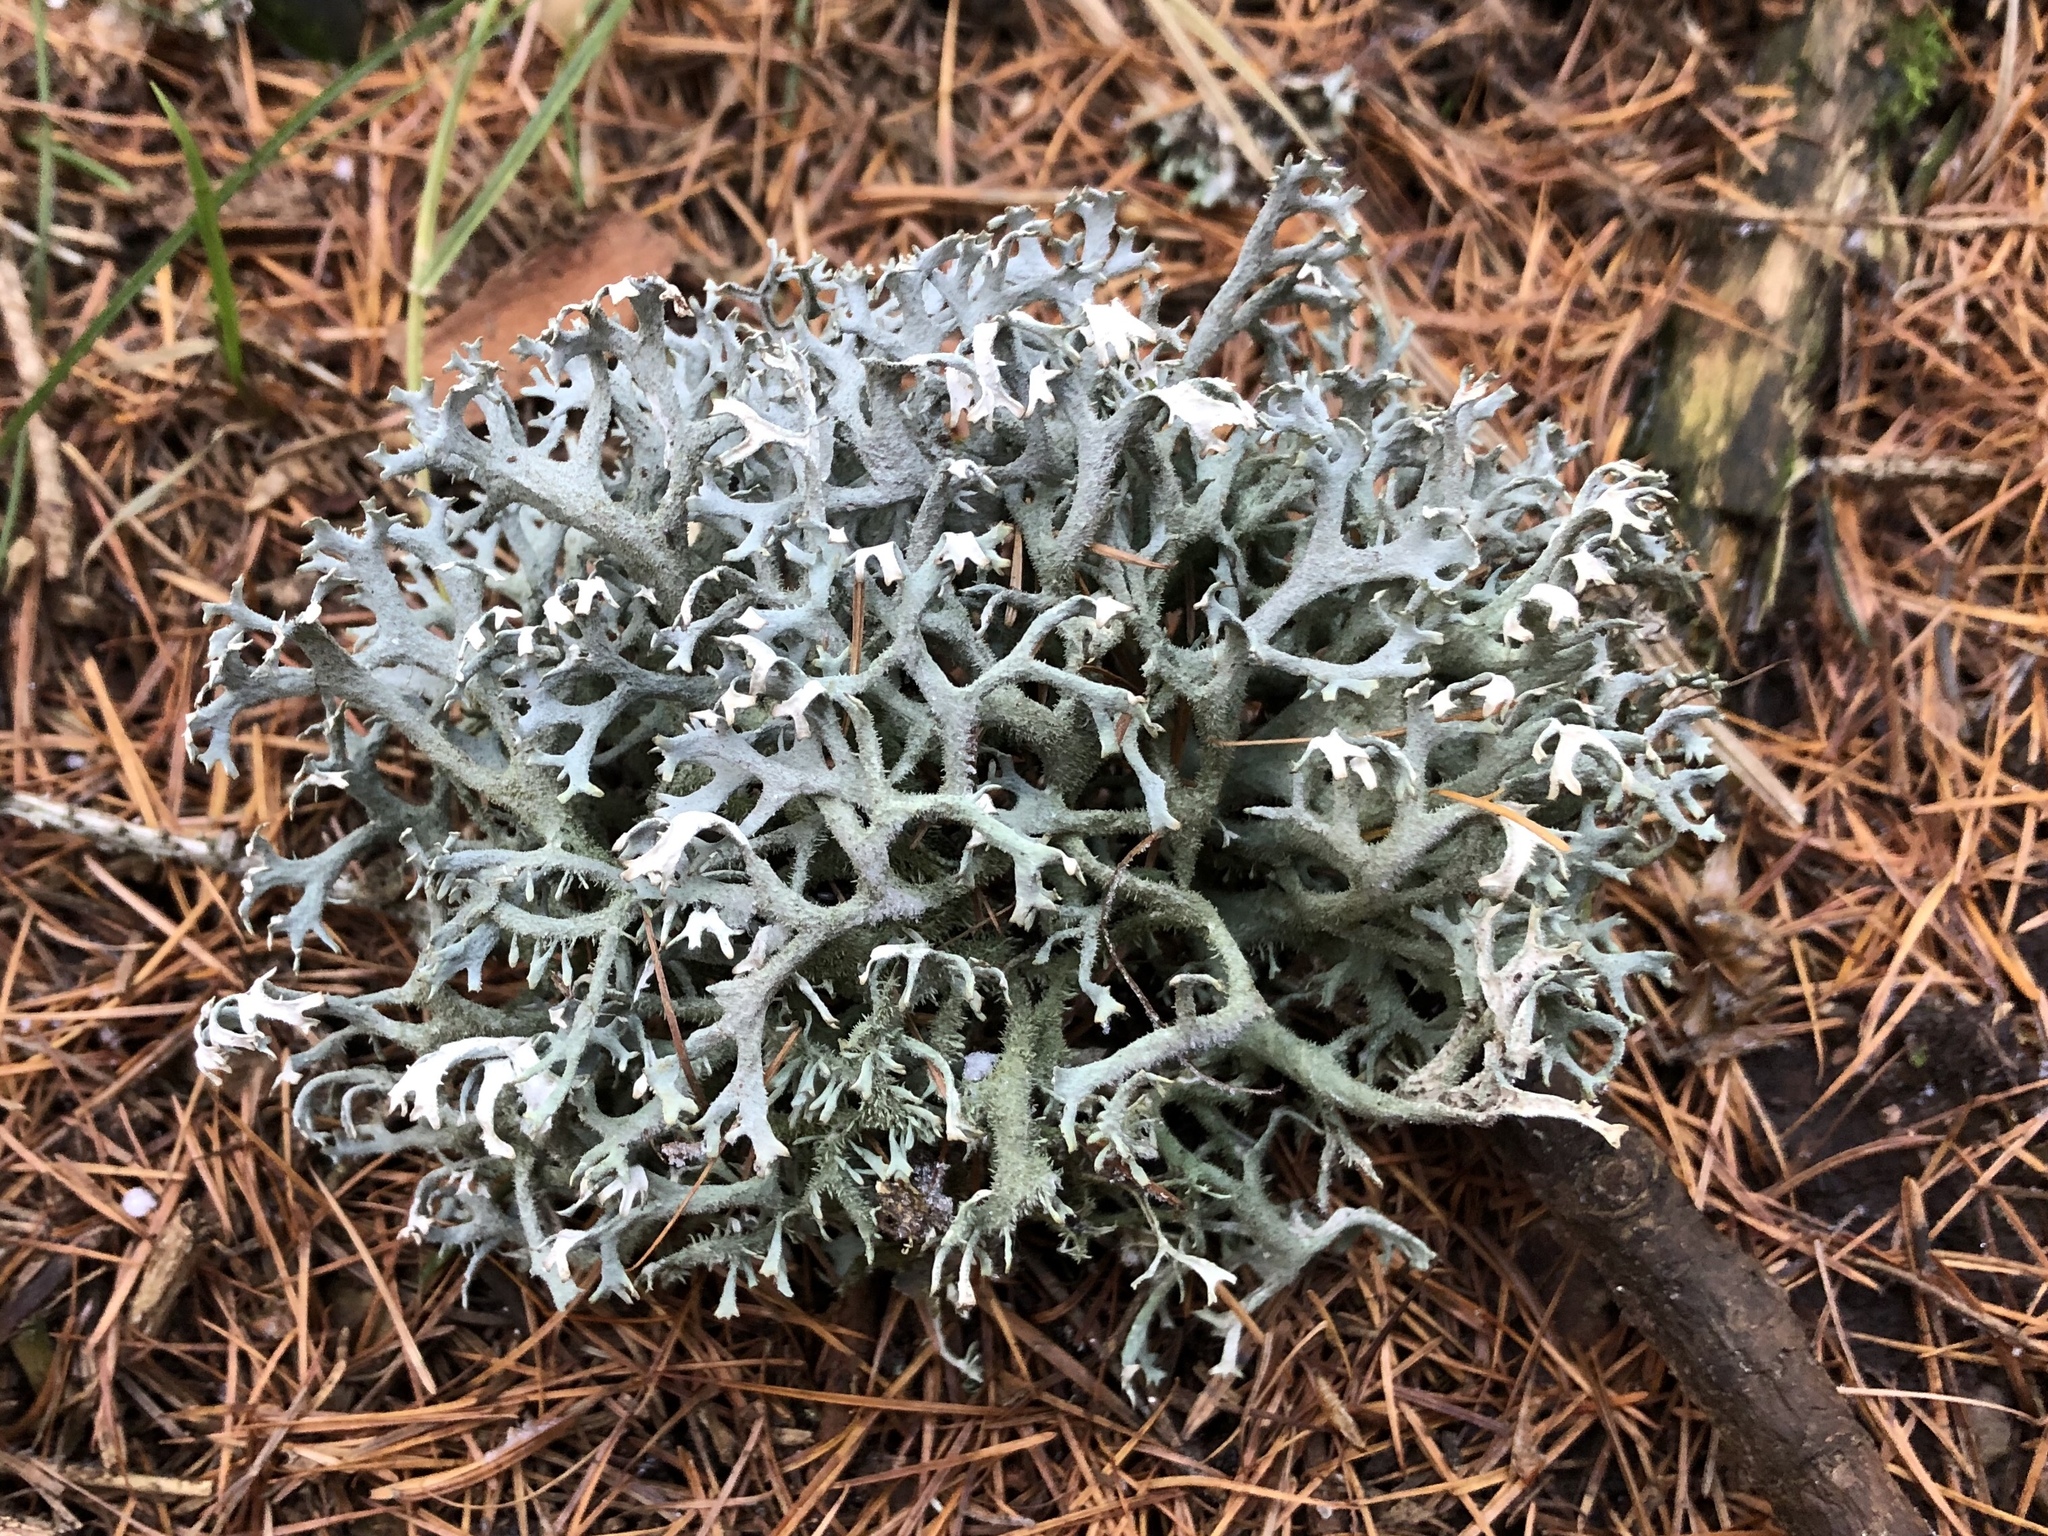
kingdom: Fungi
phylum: Ascomycota
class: Lecanoromycetes
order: Lecanorales
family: Parmeliaceae
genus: Pseudevernia
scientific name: Pseudevernia furfuracea
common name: Tree moss
